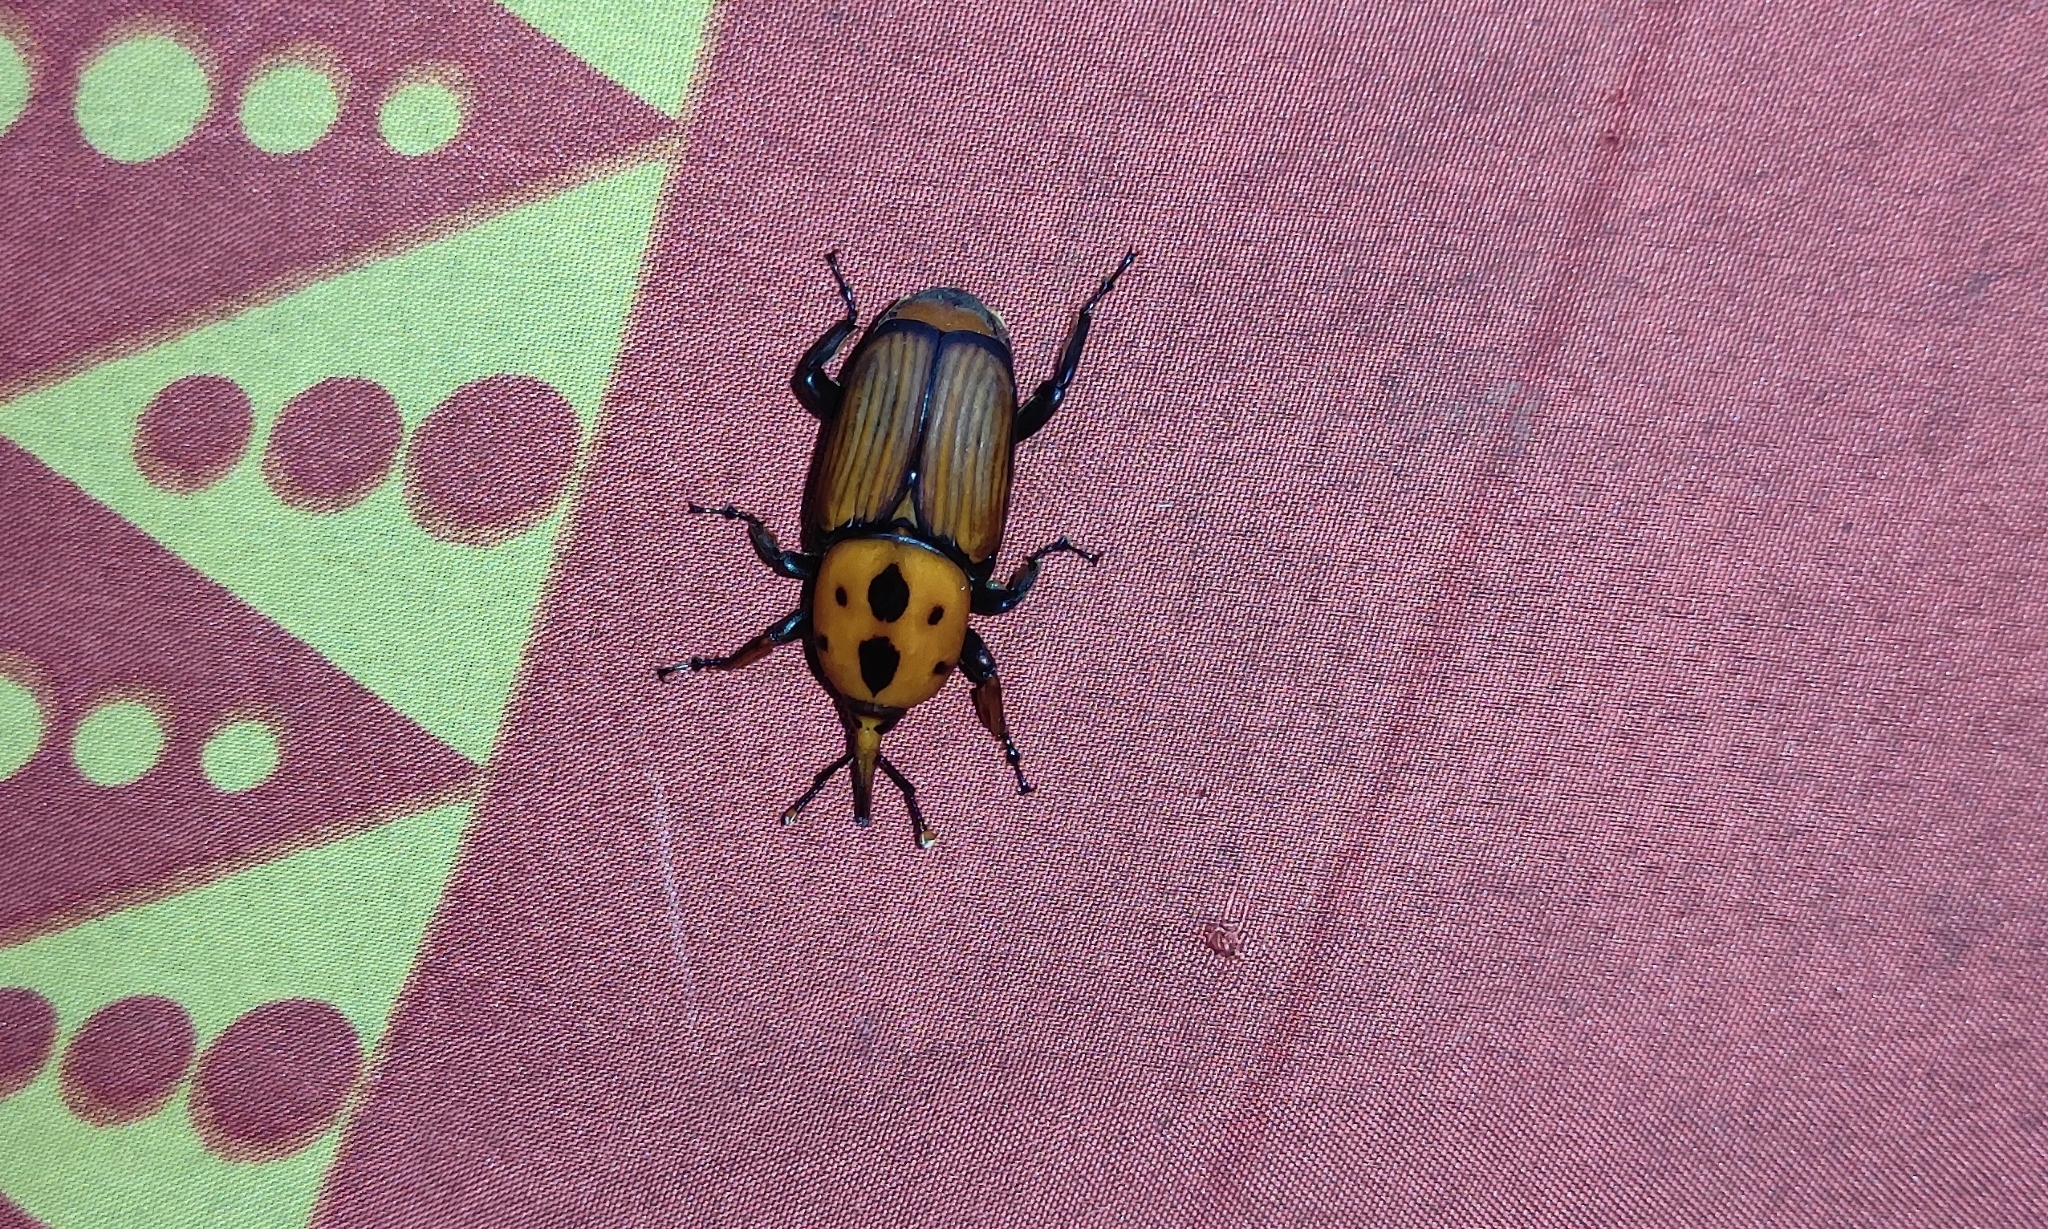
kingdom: Animalia
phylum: Arthropoda
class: Insecta
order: Coleoptera
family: Dryophthoridae
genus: Rhynchophorus
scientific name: Rhynchophorus ferrugineus
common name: Red palm weevil
